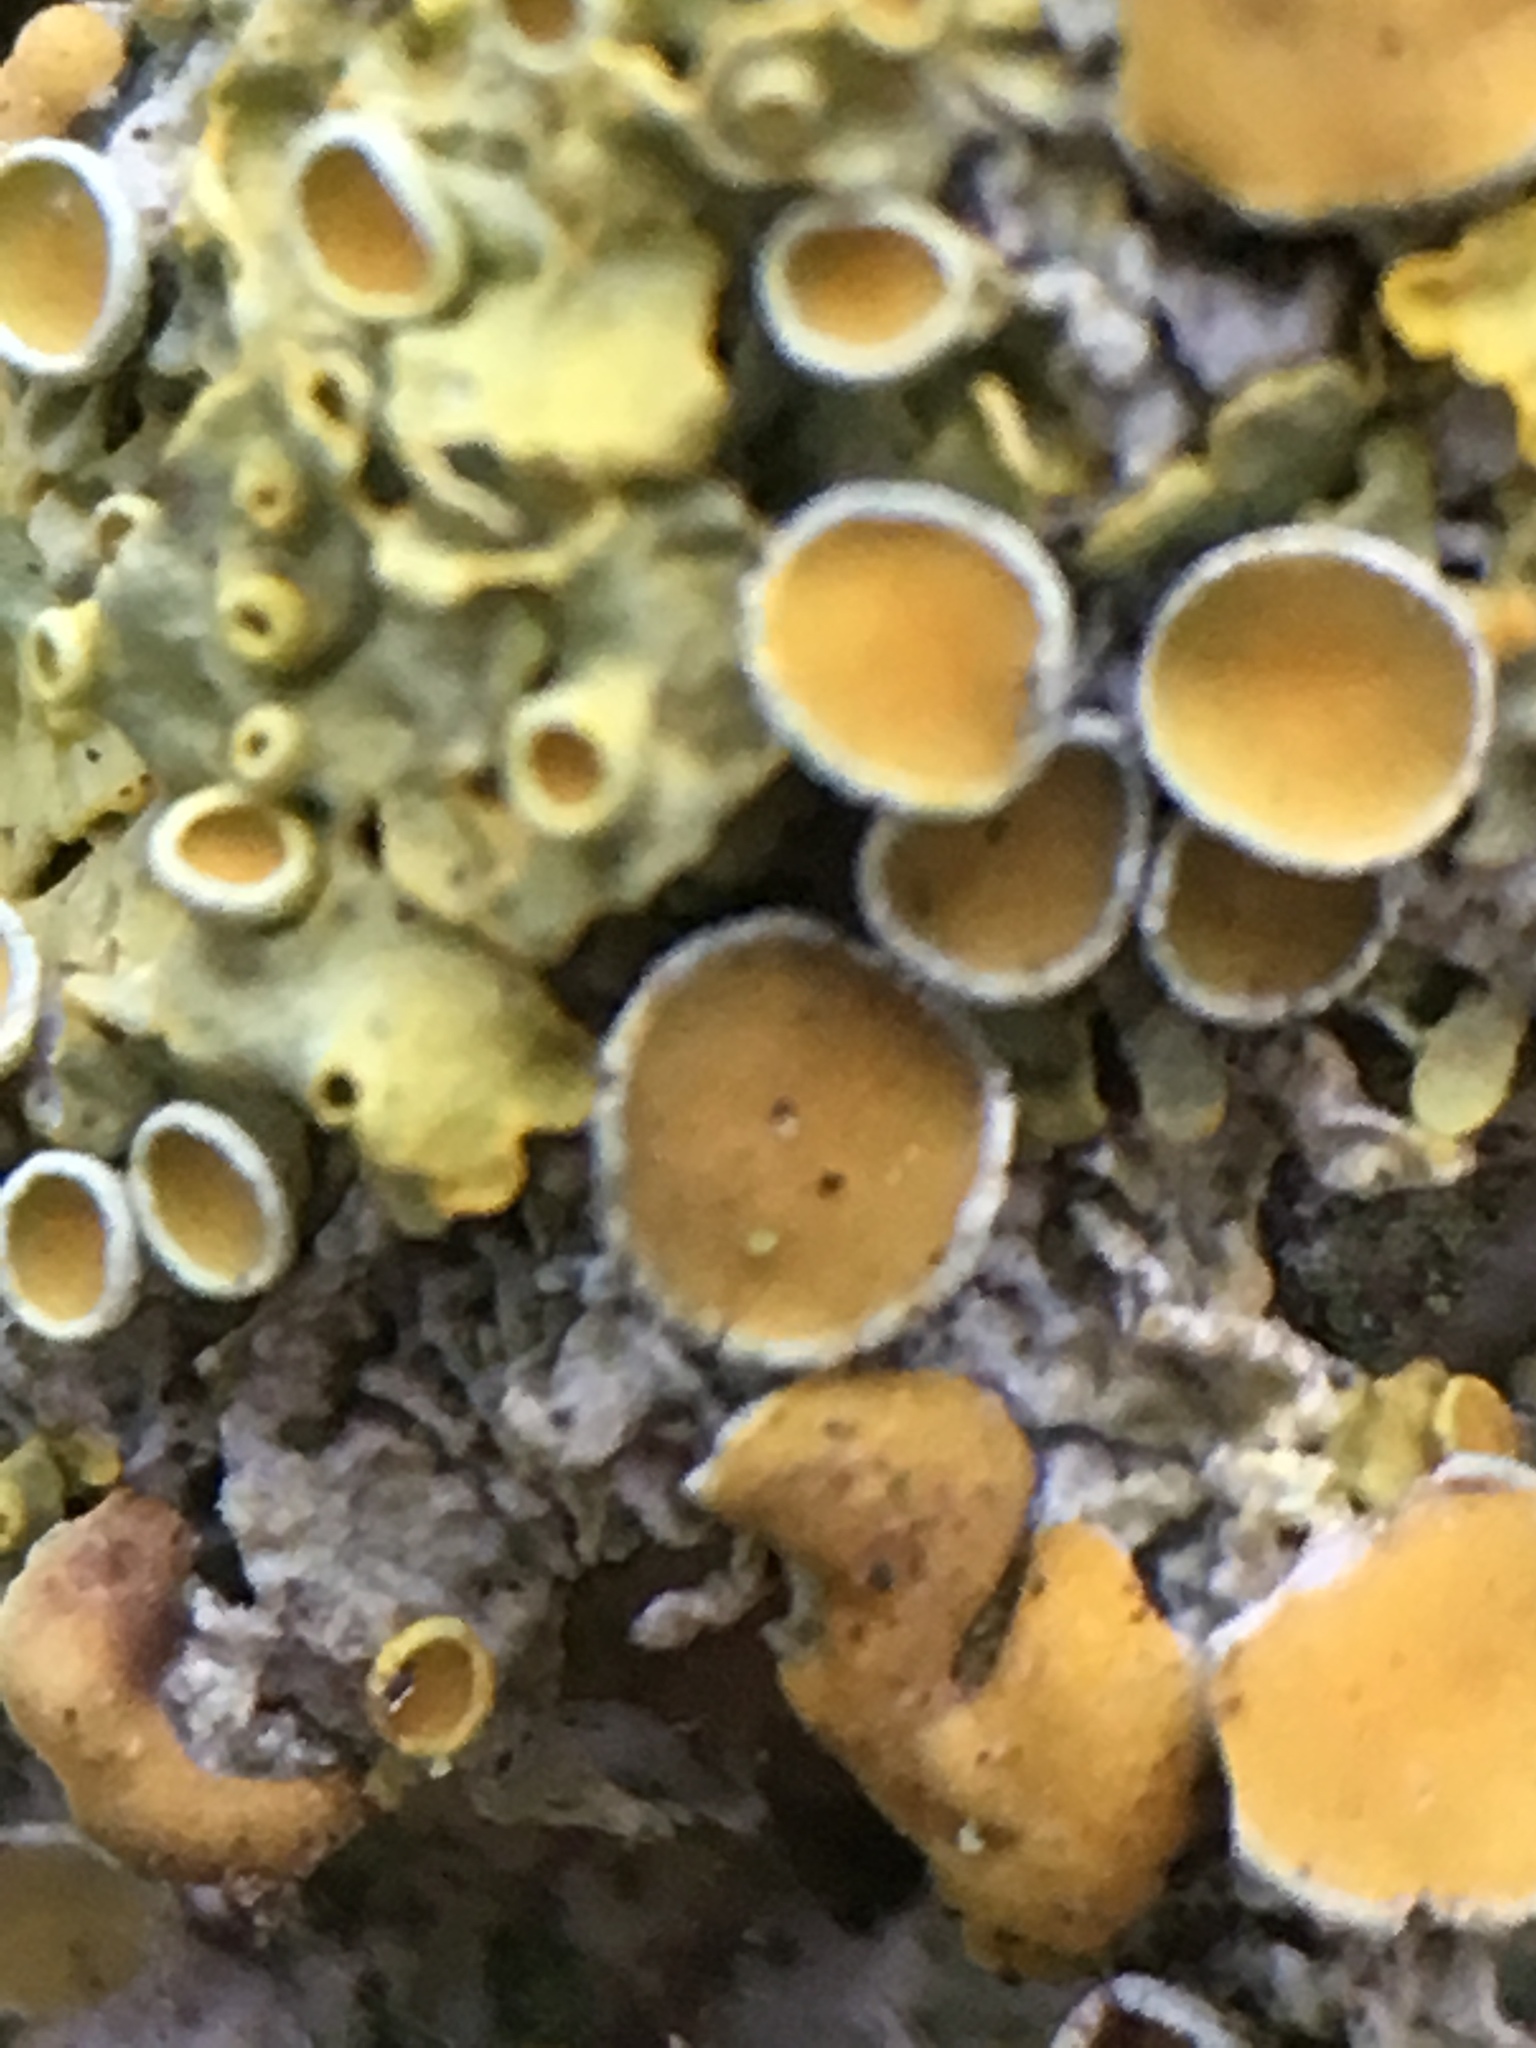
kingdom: Fungi
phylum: Ascomycota
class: Lecanoromycetes
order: Teloschistales
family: Teloschistaceae
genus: Xanthoria
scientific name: Xanthoria parietina
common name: Common orange lichen
